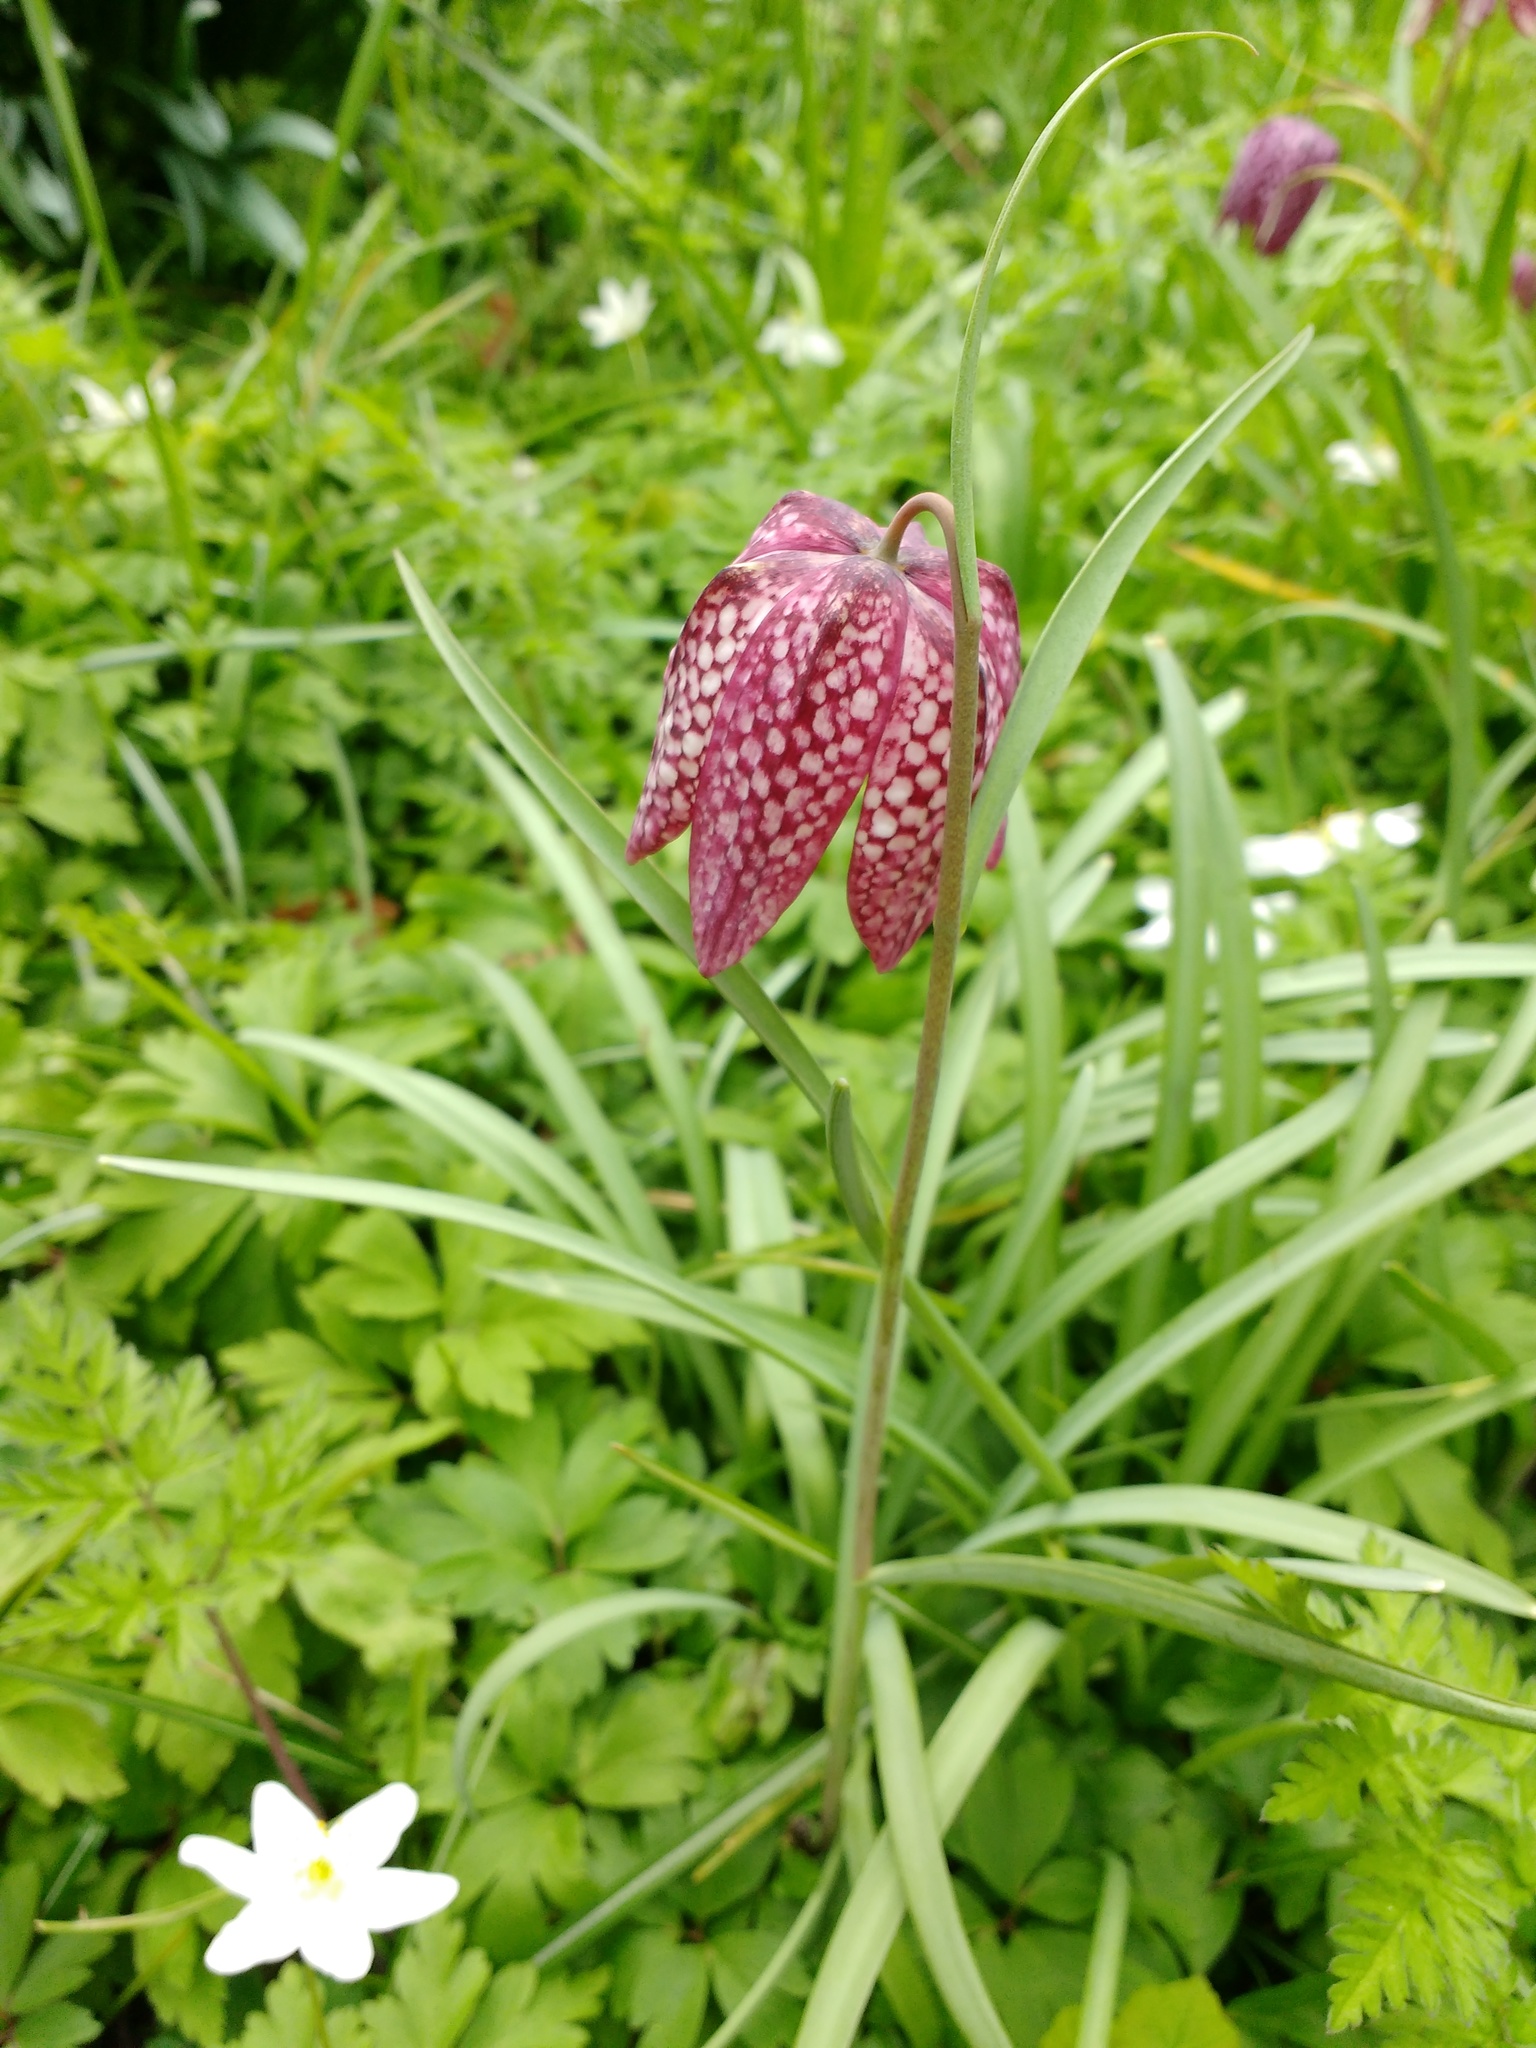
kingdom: Plantae
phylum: Tracheophyta
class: Liliopsida
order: Liliales
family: Liliaceae
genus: Fritillaria
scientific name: Fritillaria meleagris
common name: Fritillary
